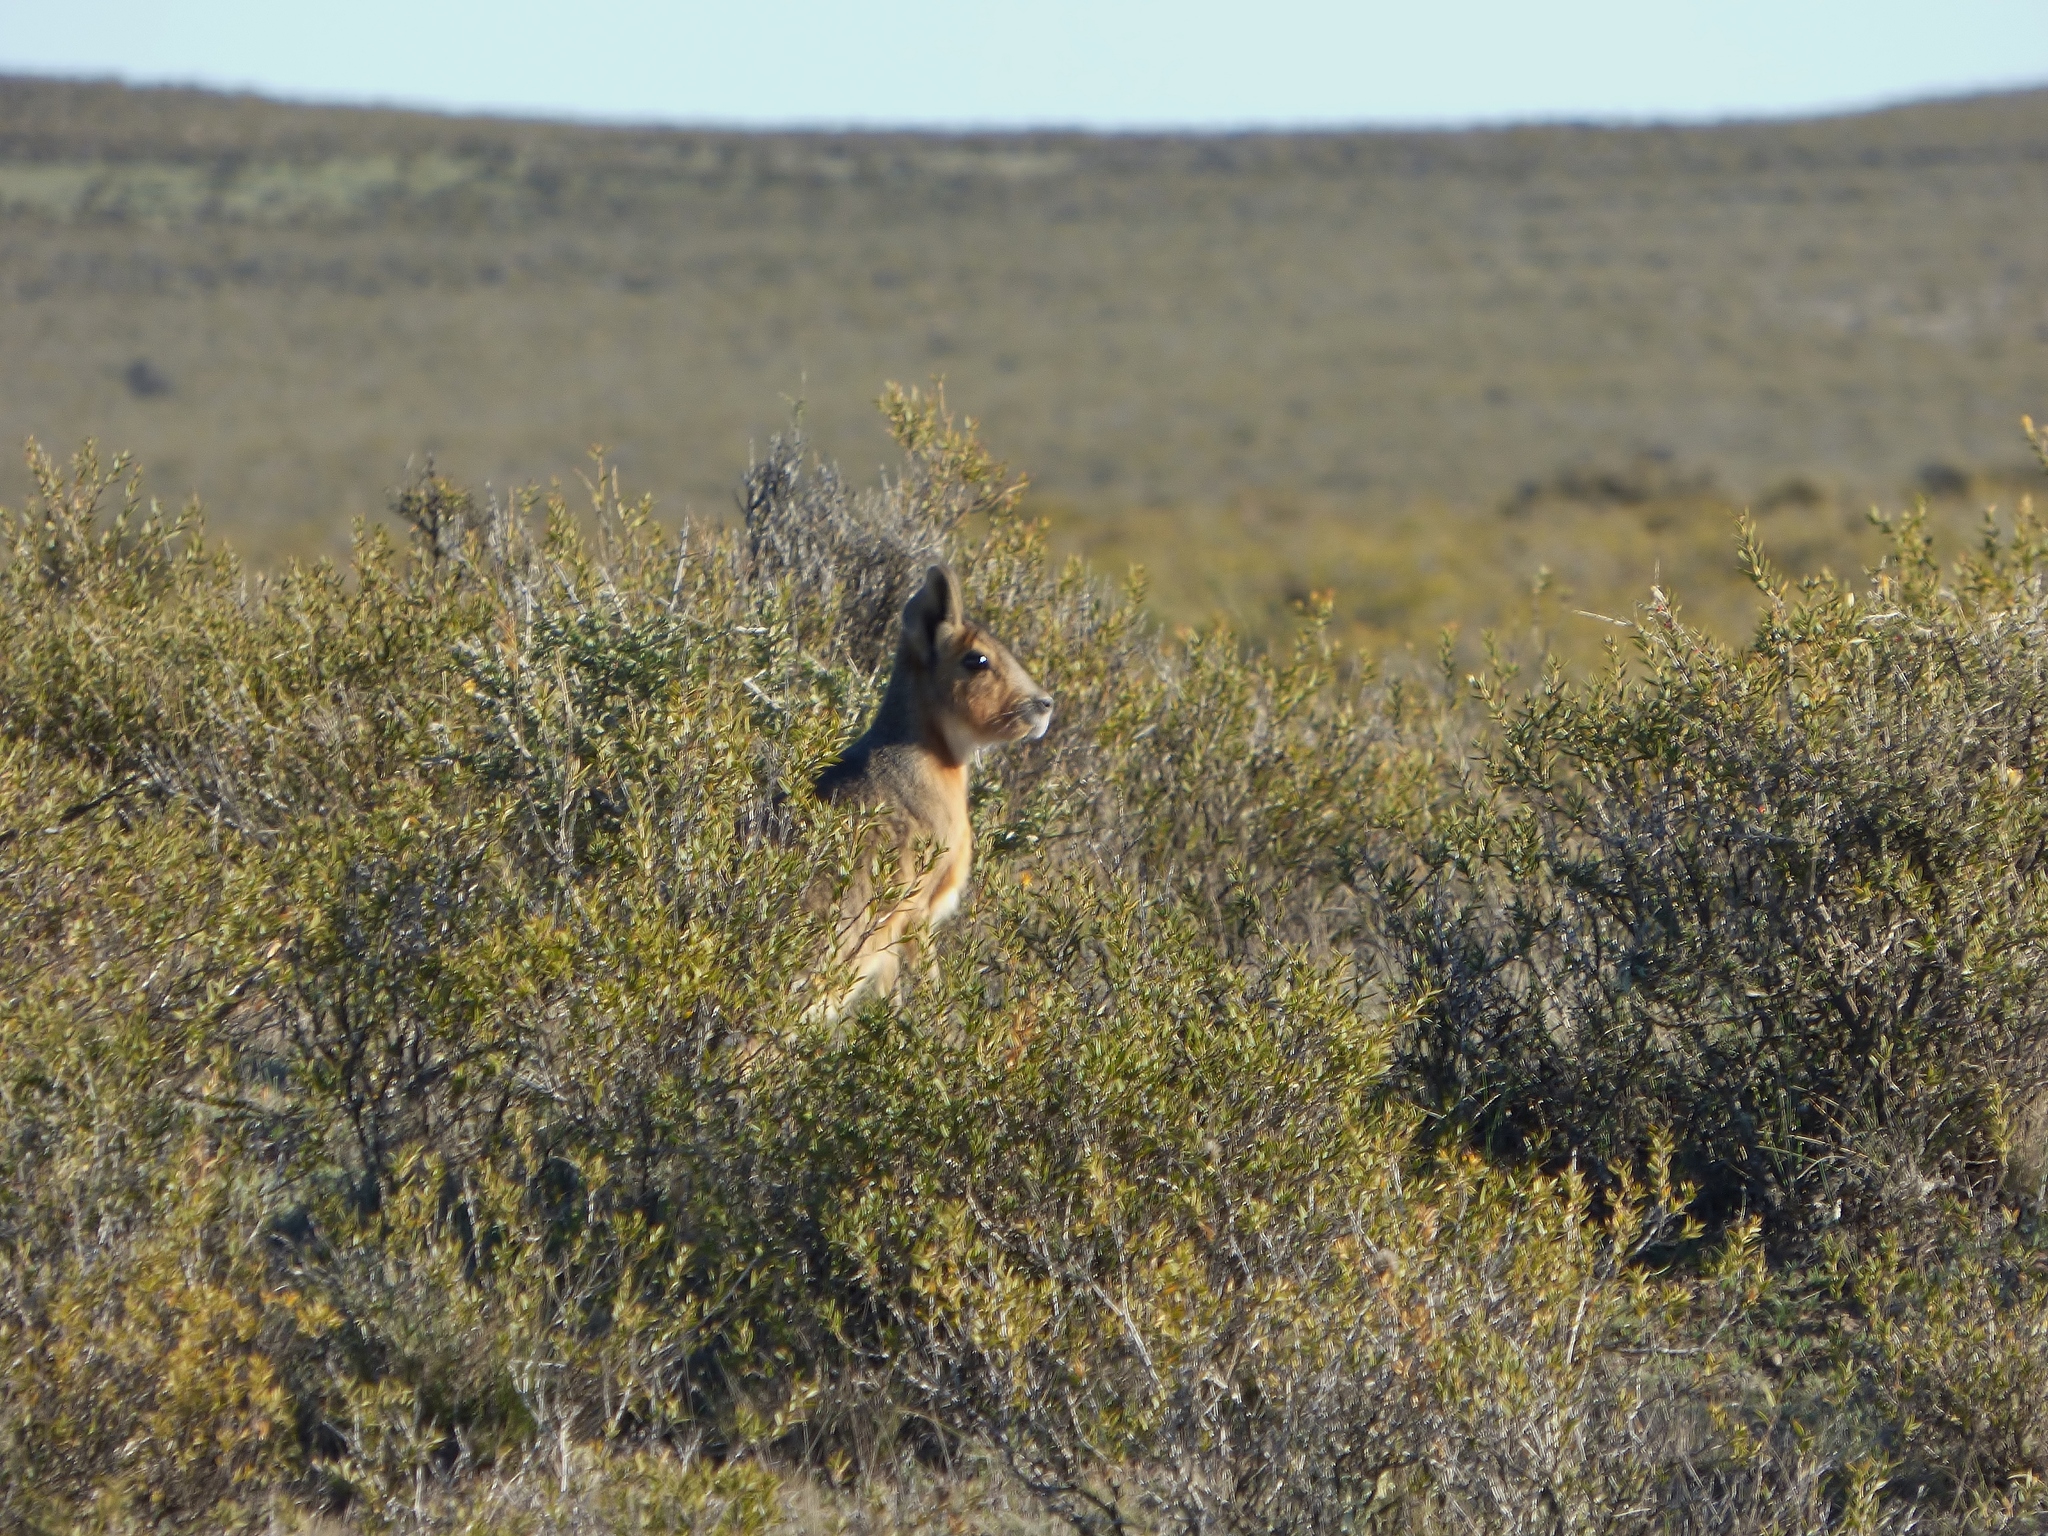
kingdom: Animalia
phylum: Chordata
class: Mammalia
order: Rodentia
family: Caviidae
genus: Dolichotis
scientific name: Dolichotis patagonum
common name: Patagonian mara
